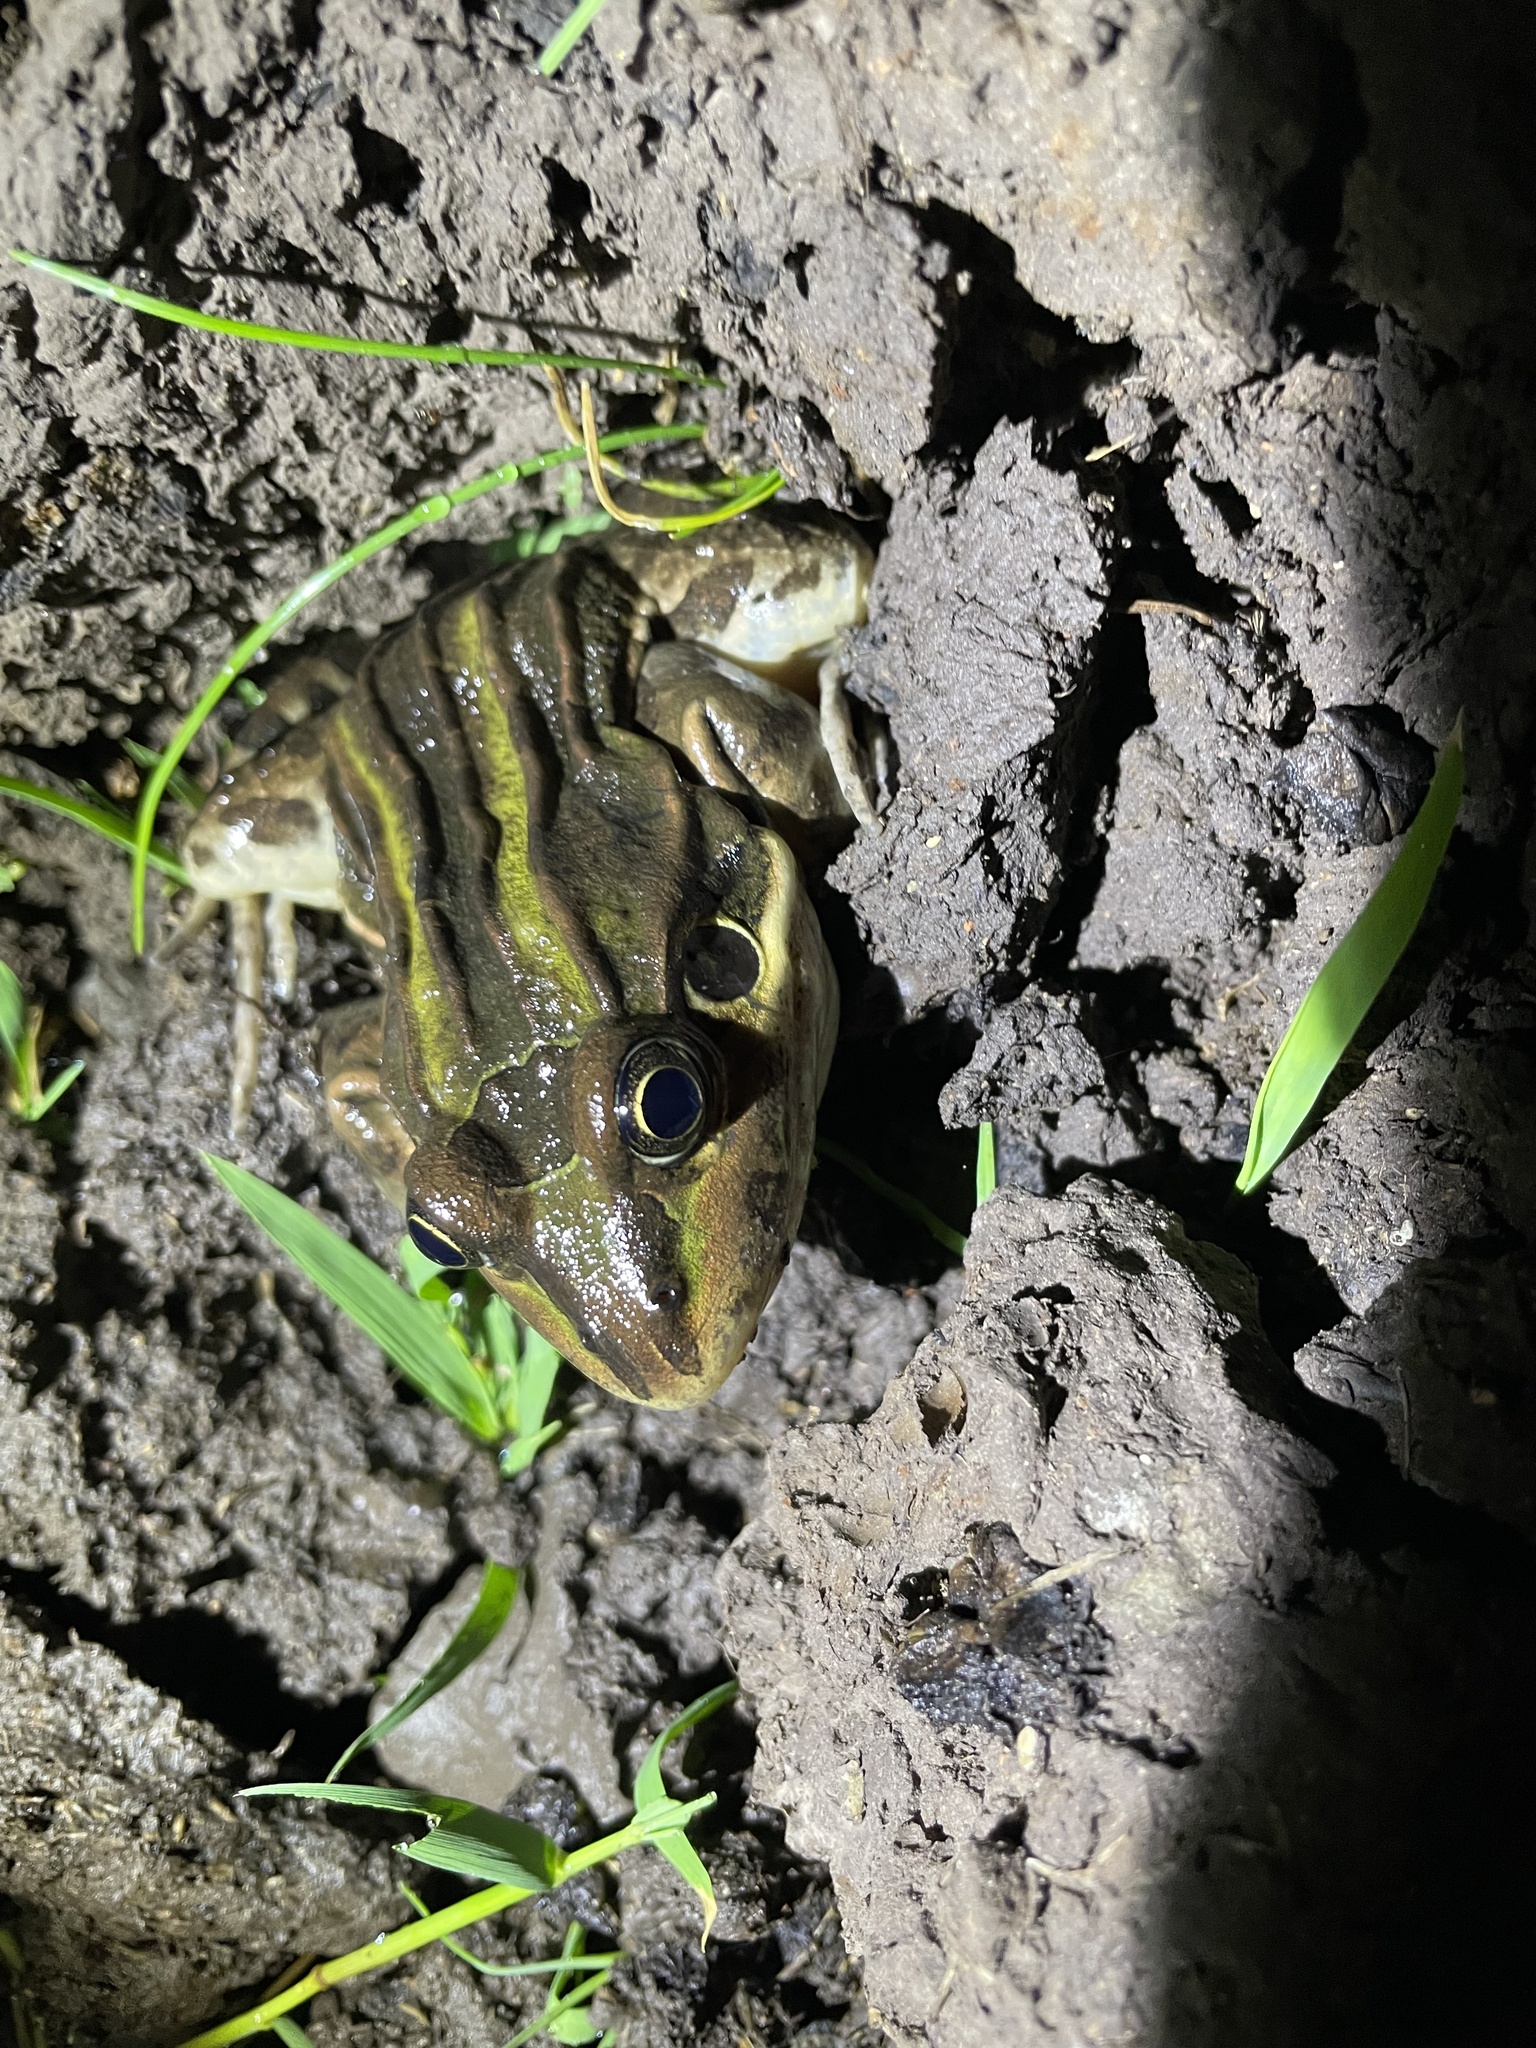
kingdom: Animalia
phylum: Chordata
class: Amphibia
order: Anura
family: Leptodactylidae
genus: Leptodactylus
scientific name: Leptodactylus luctator
